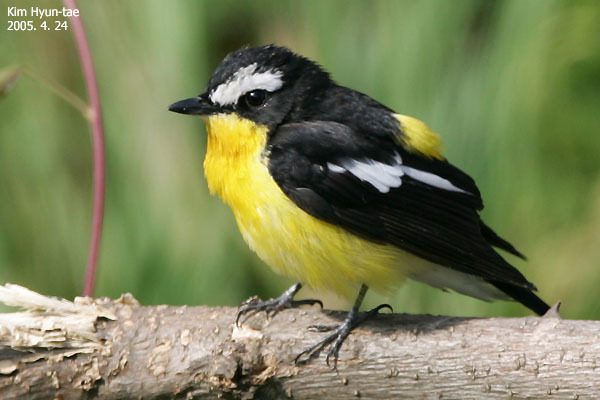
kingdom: Animalia
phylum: Chordata
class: Aves
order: Passeriformes
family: Muscicapidae
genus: Ficedula
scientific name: Ficedula zanthopygia
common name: Yellow-rumped flycatcher
